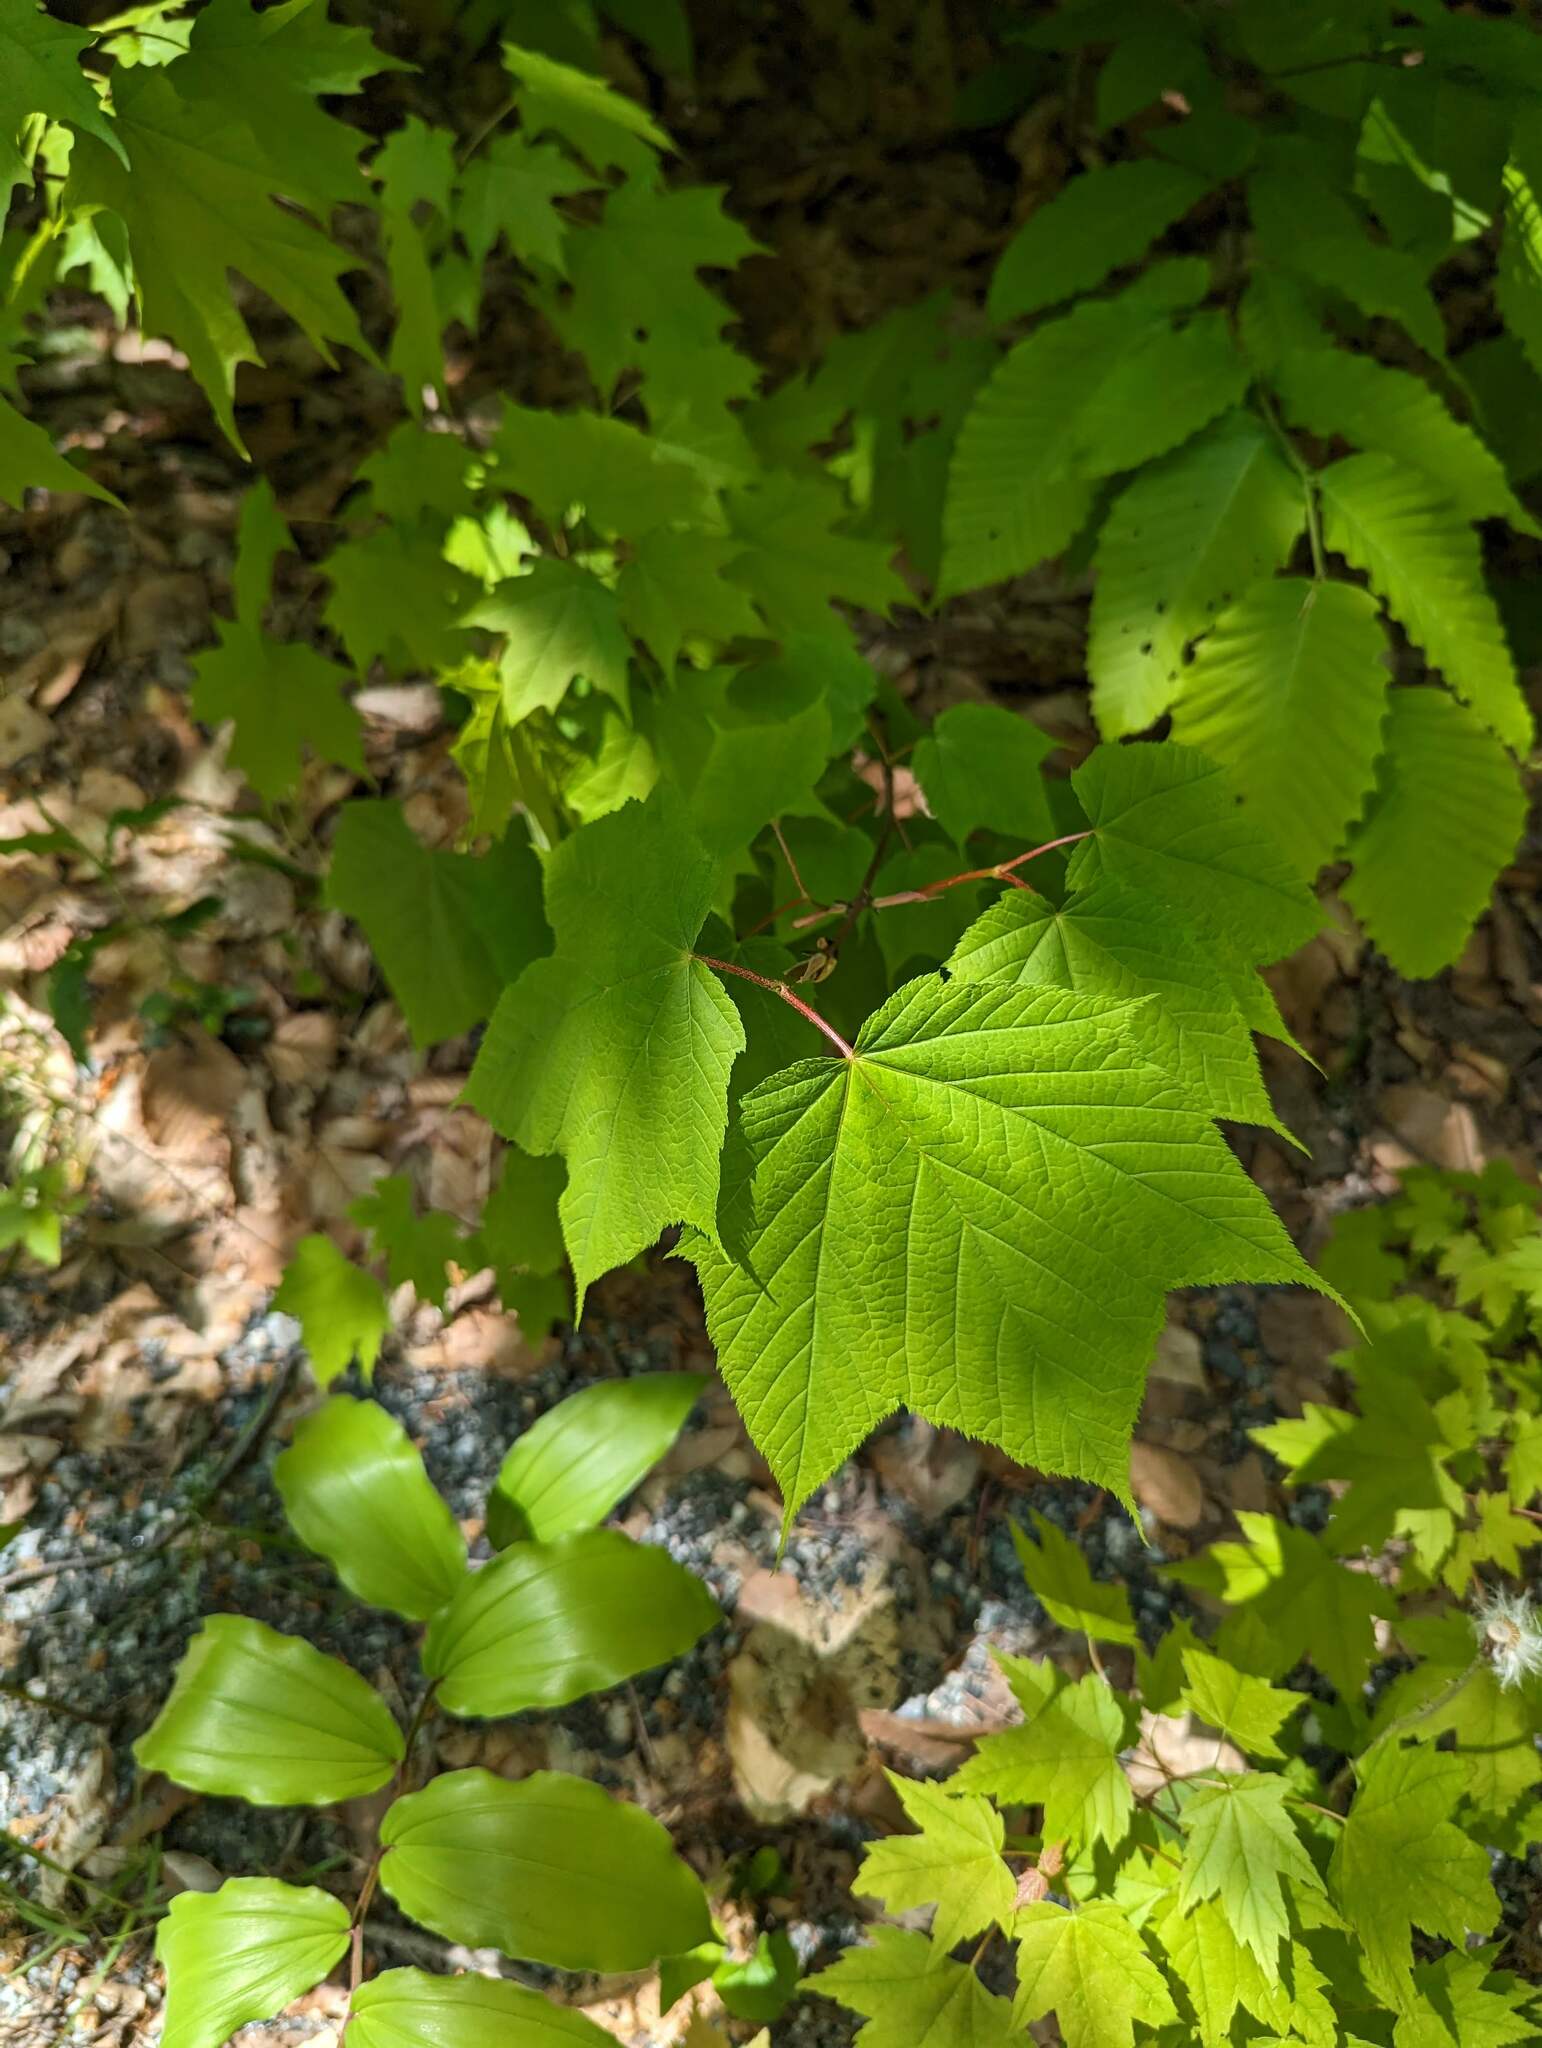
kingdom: Plantae
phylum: Tracheophyta
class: Magnoliopsida
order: Sapindales
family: Sapindaceae
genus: Acer
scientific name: Acer pensylvanicum
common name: Moosewood
